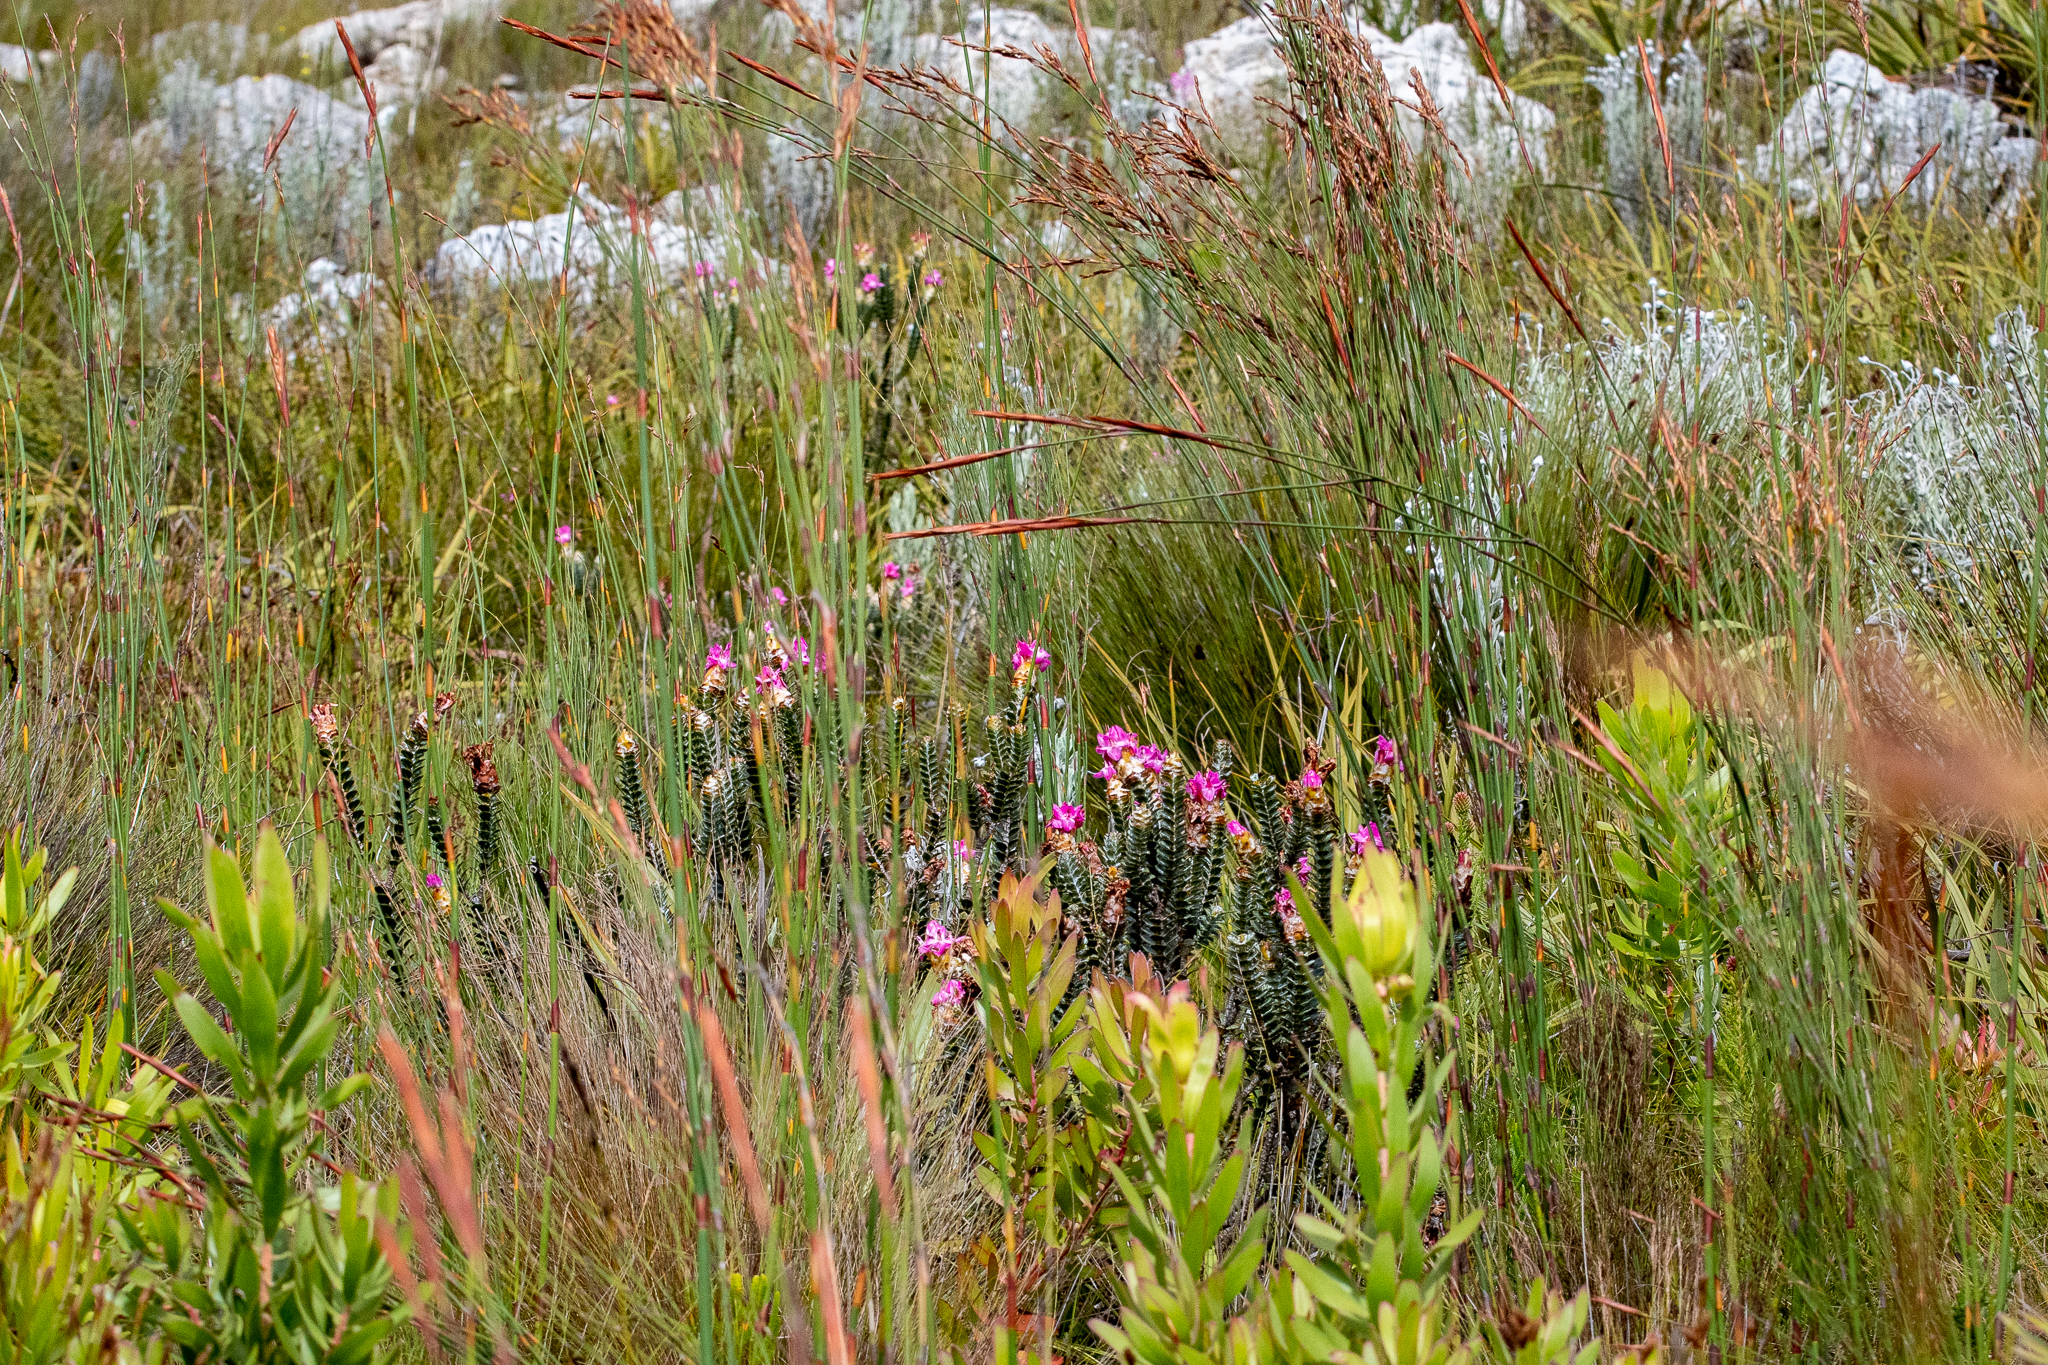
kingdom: Plantae
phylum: Tracheophyta
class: Magnoliopsida
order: Myrtales
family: Penaeaceae
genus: Saltera
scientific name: Saltera sarcocolla
